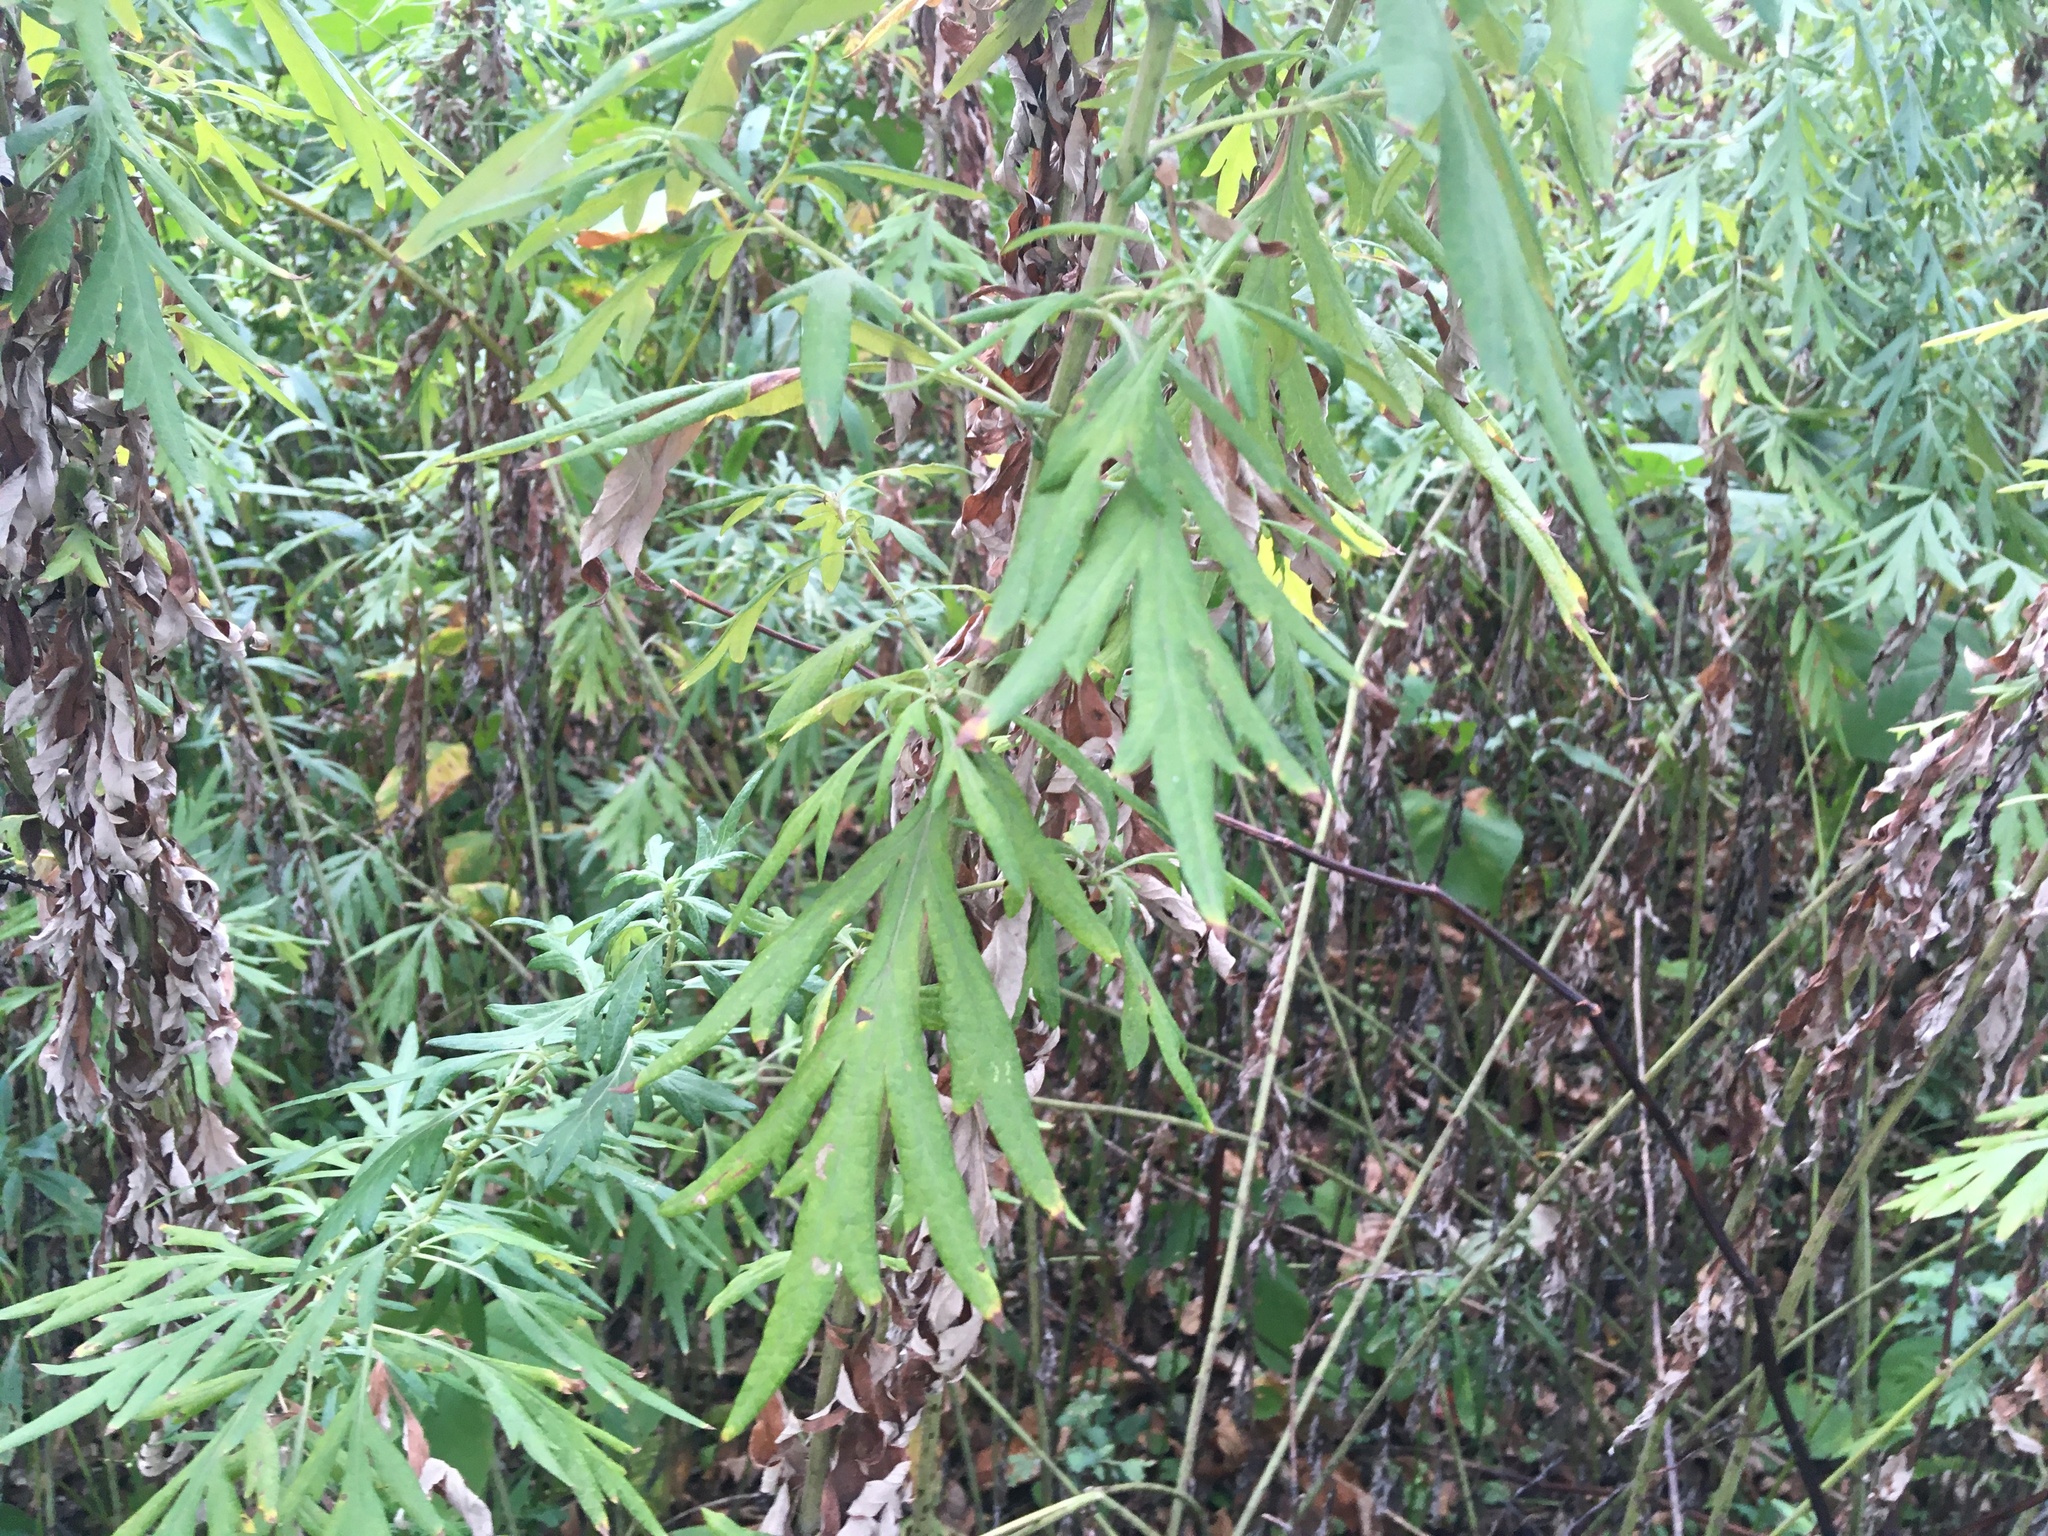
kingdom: Plantae
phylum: Tracheophyta
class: Magnoliopsida
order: Asterales
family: Asteraceae
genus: Artemisia
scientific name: Artemisia vulgaris
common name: Mugwort
